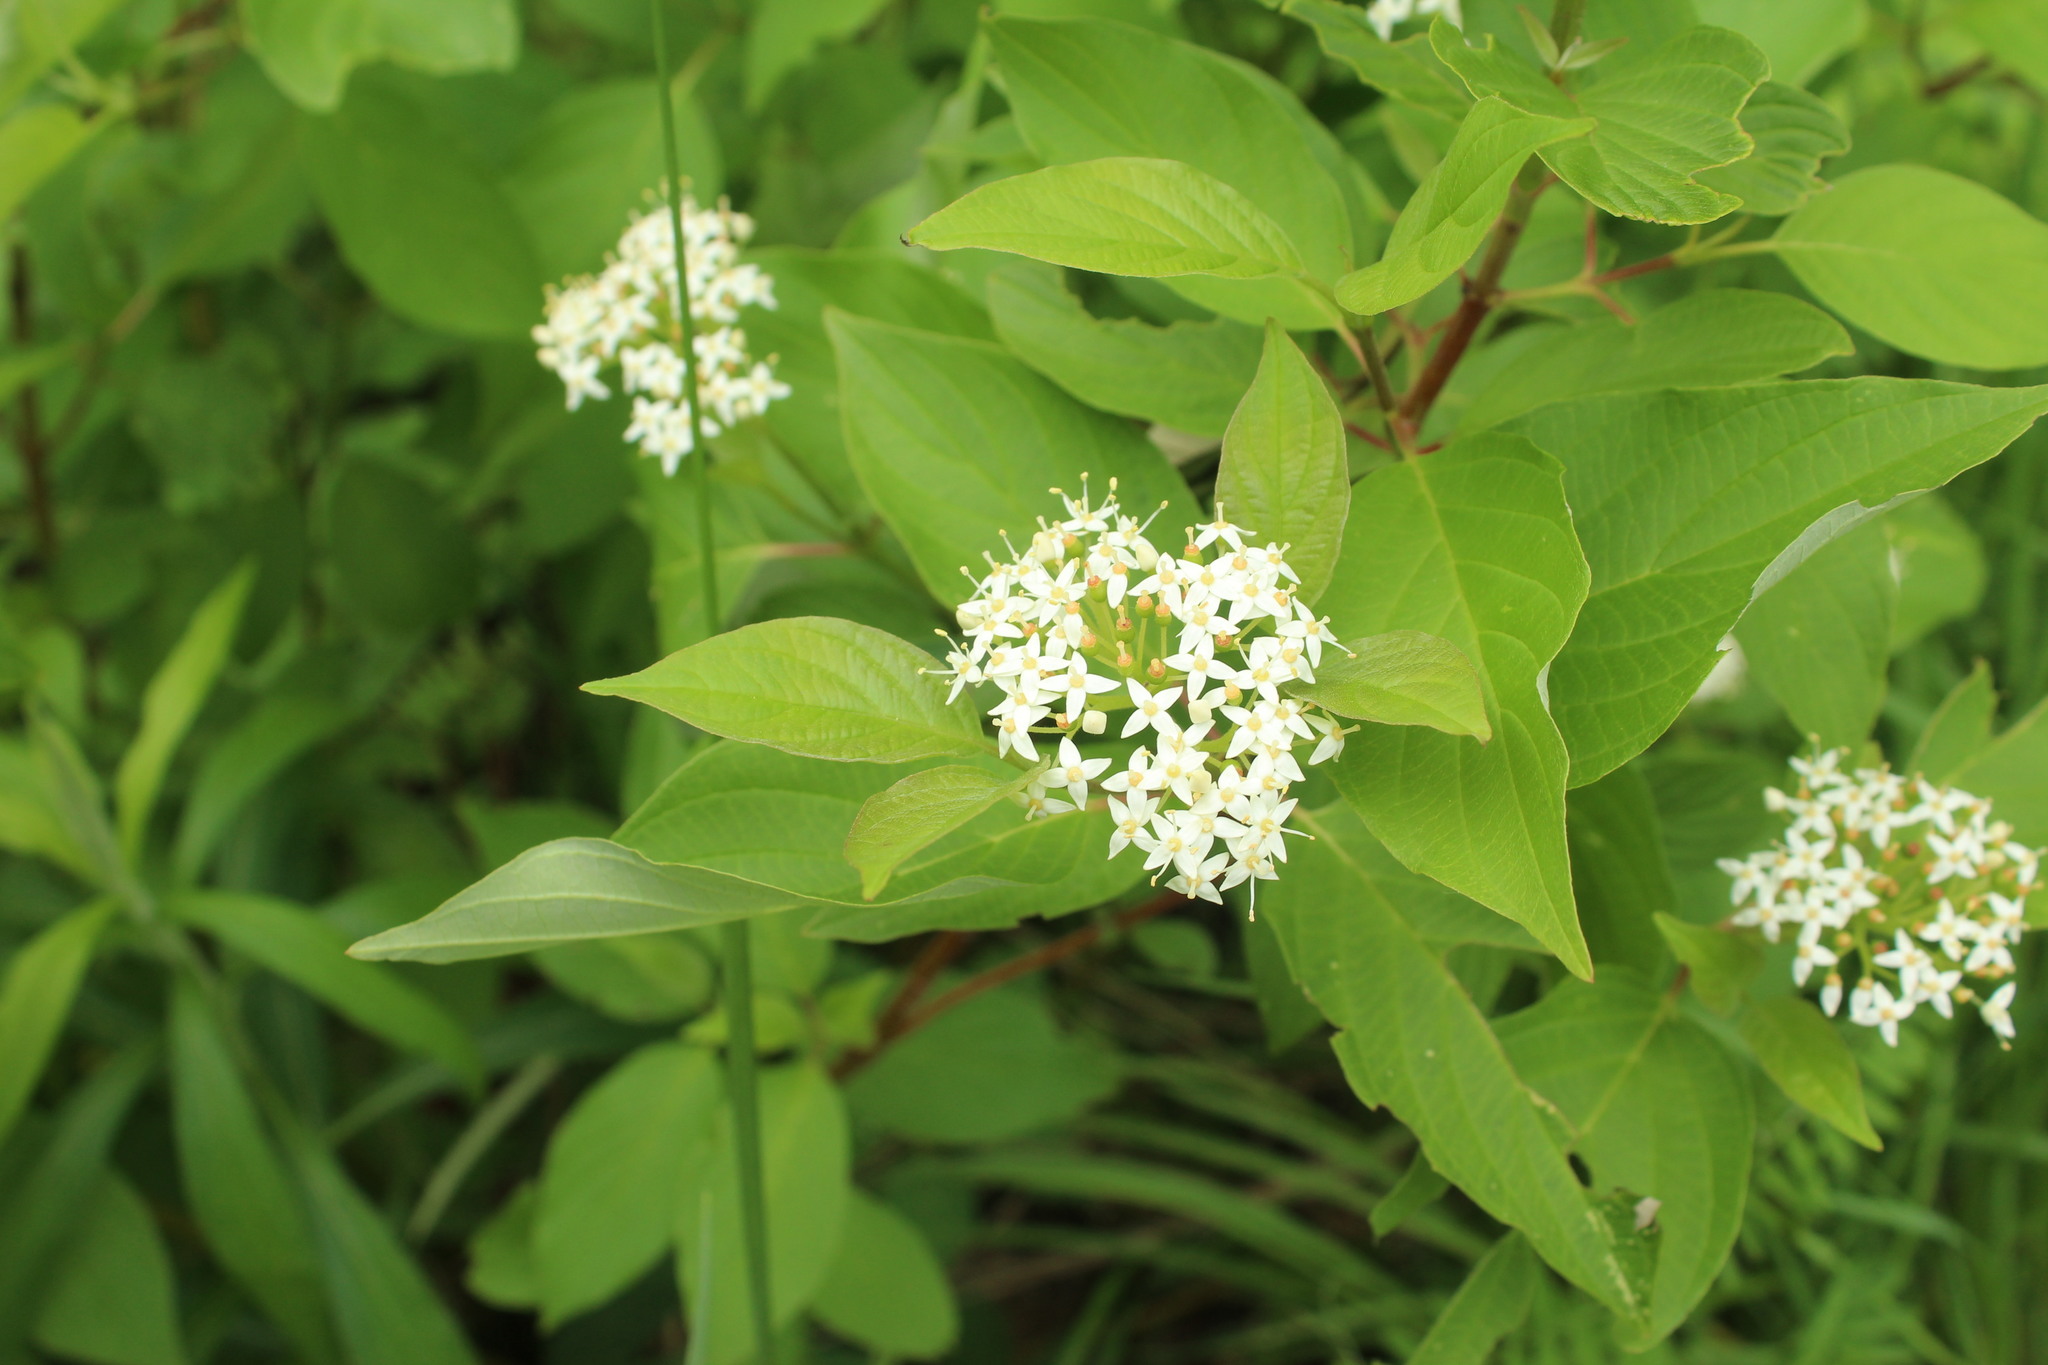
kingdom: Plantae
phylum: Tracheophyta
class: Magnoliopsida
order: Cornales
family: Cornaceae
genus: Cornus
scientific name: Cornus sericea
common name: Red-osier dogwood
